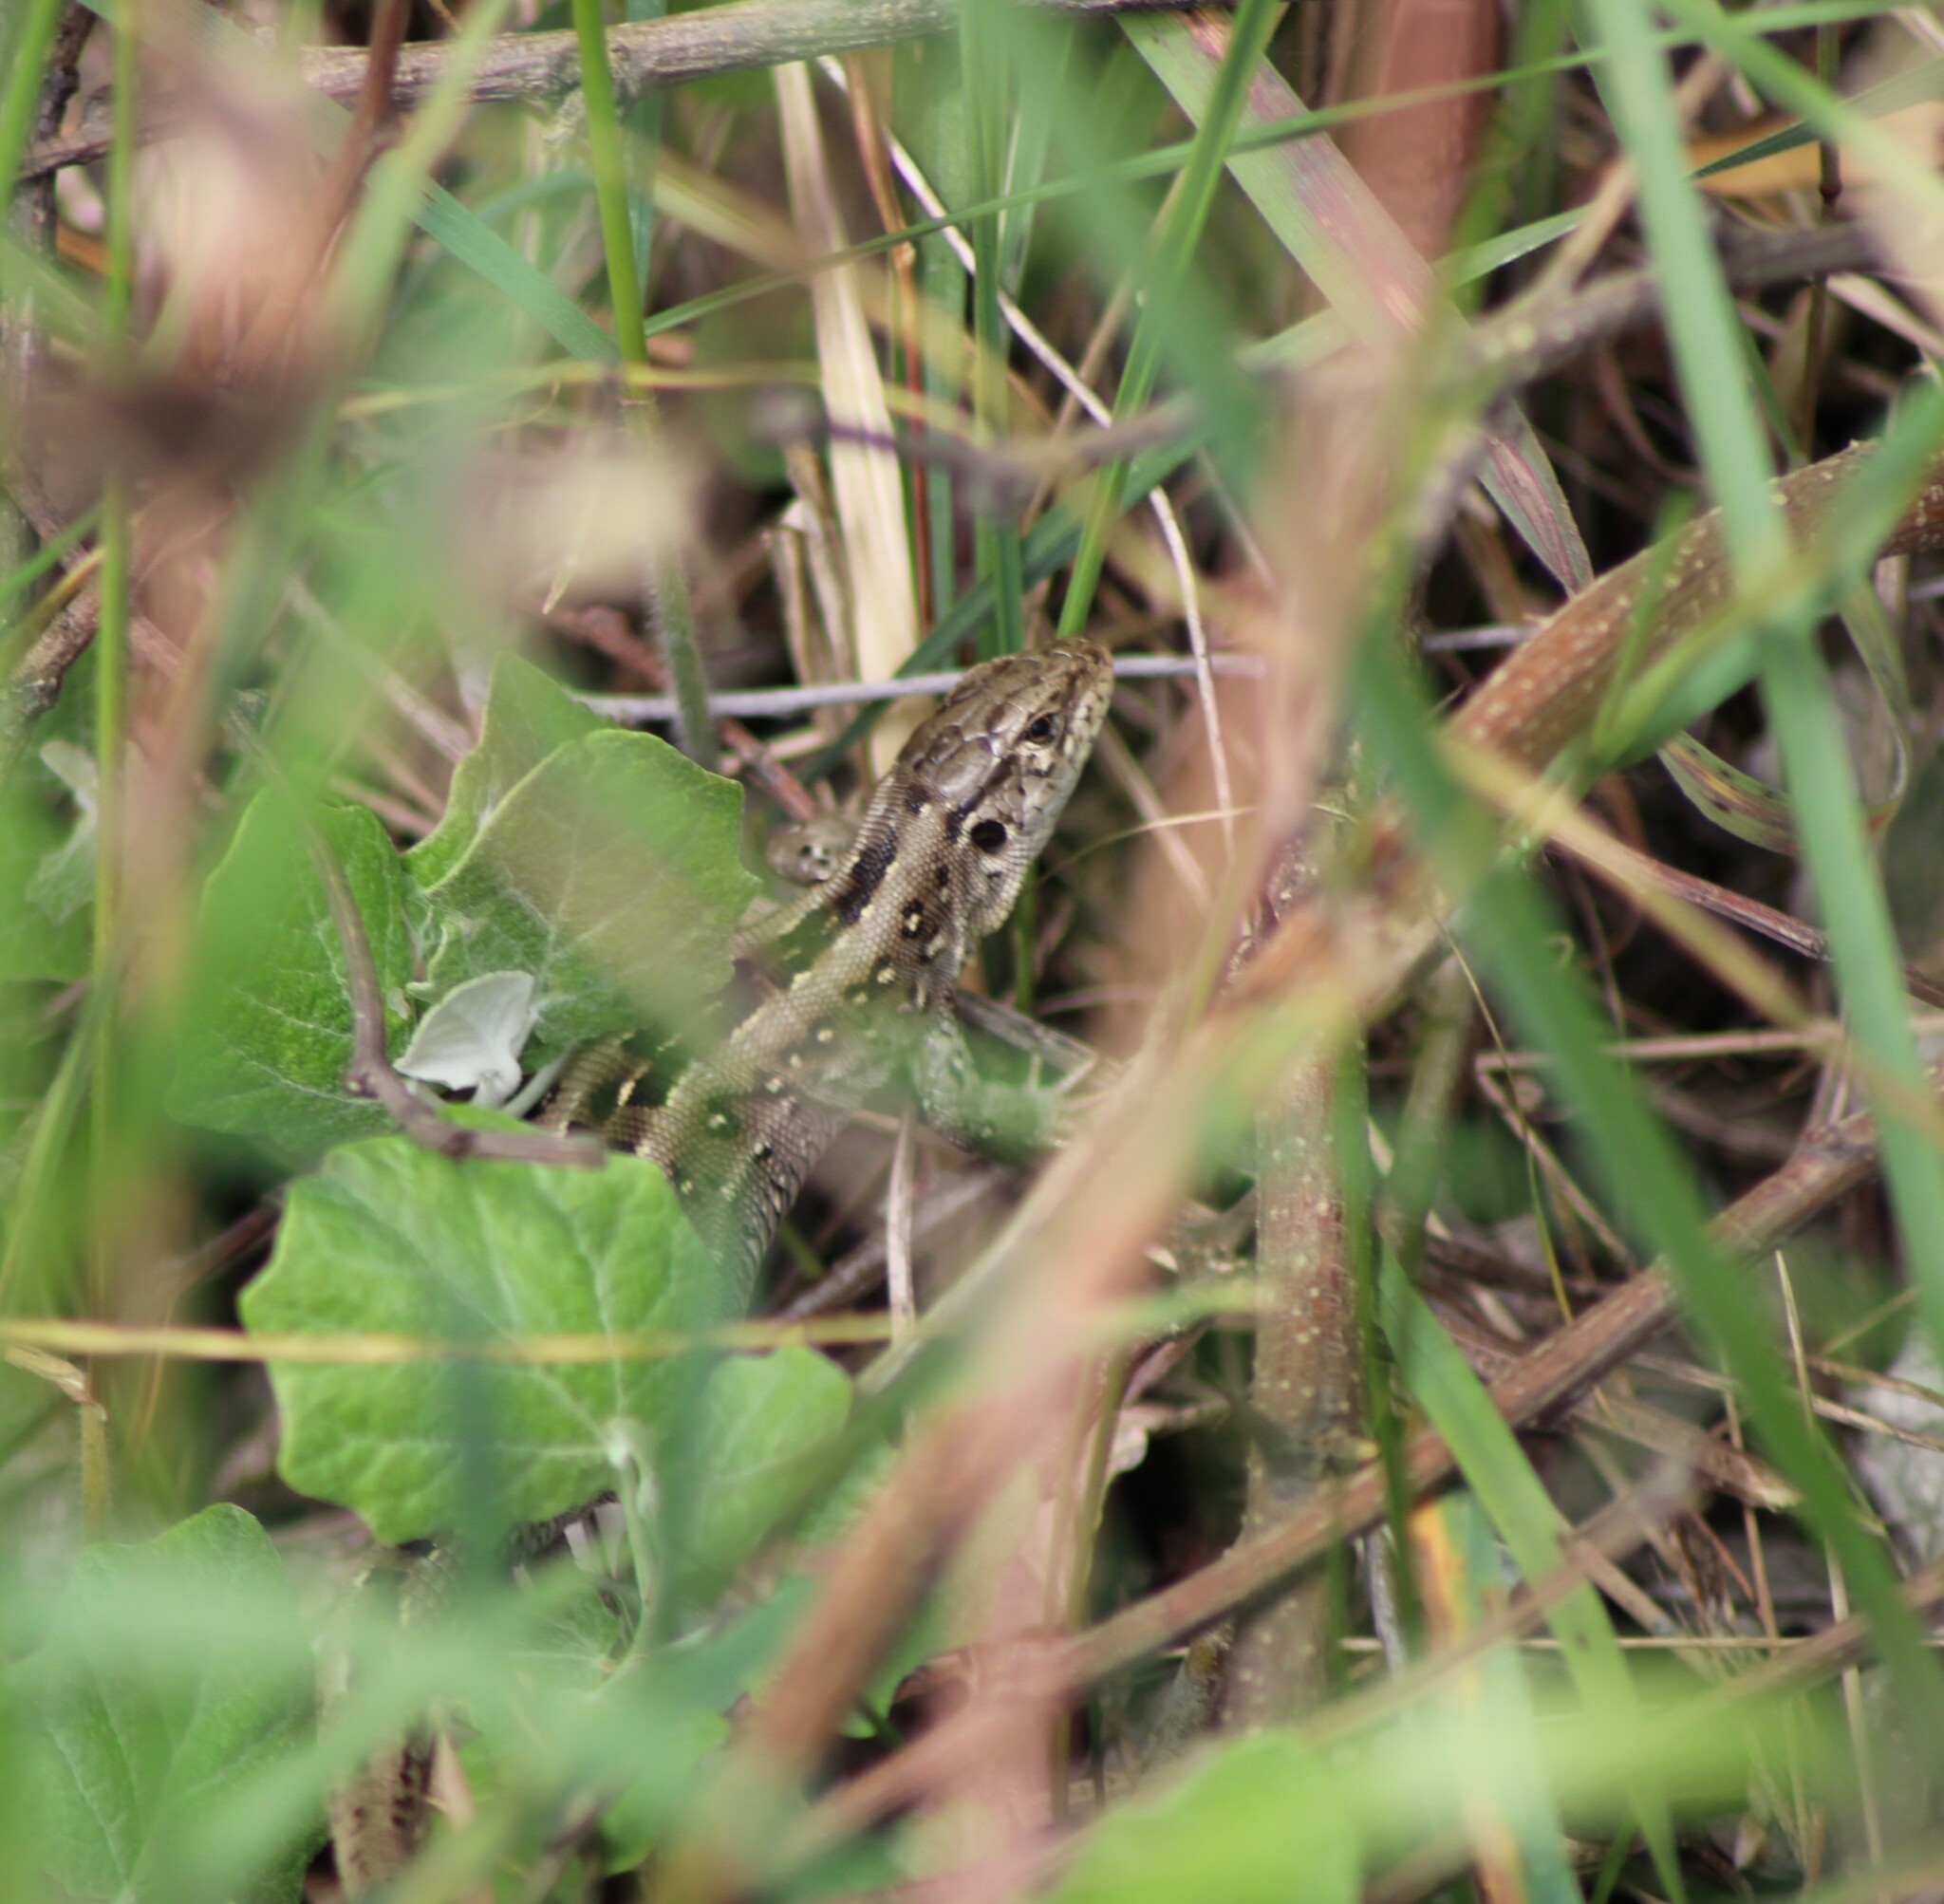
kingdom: Animalia
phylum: Chordata
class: Squamata
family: Lacertidae
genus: Lacerta
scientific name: Lacerta agilis
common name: Sand lizard
